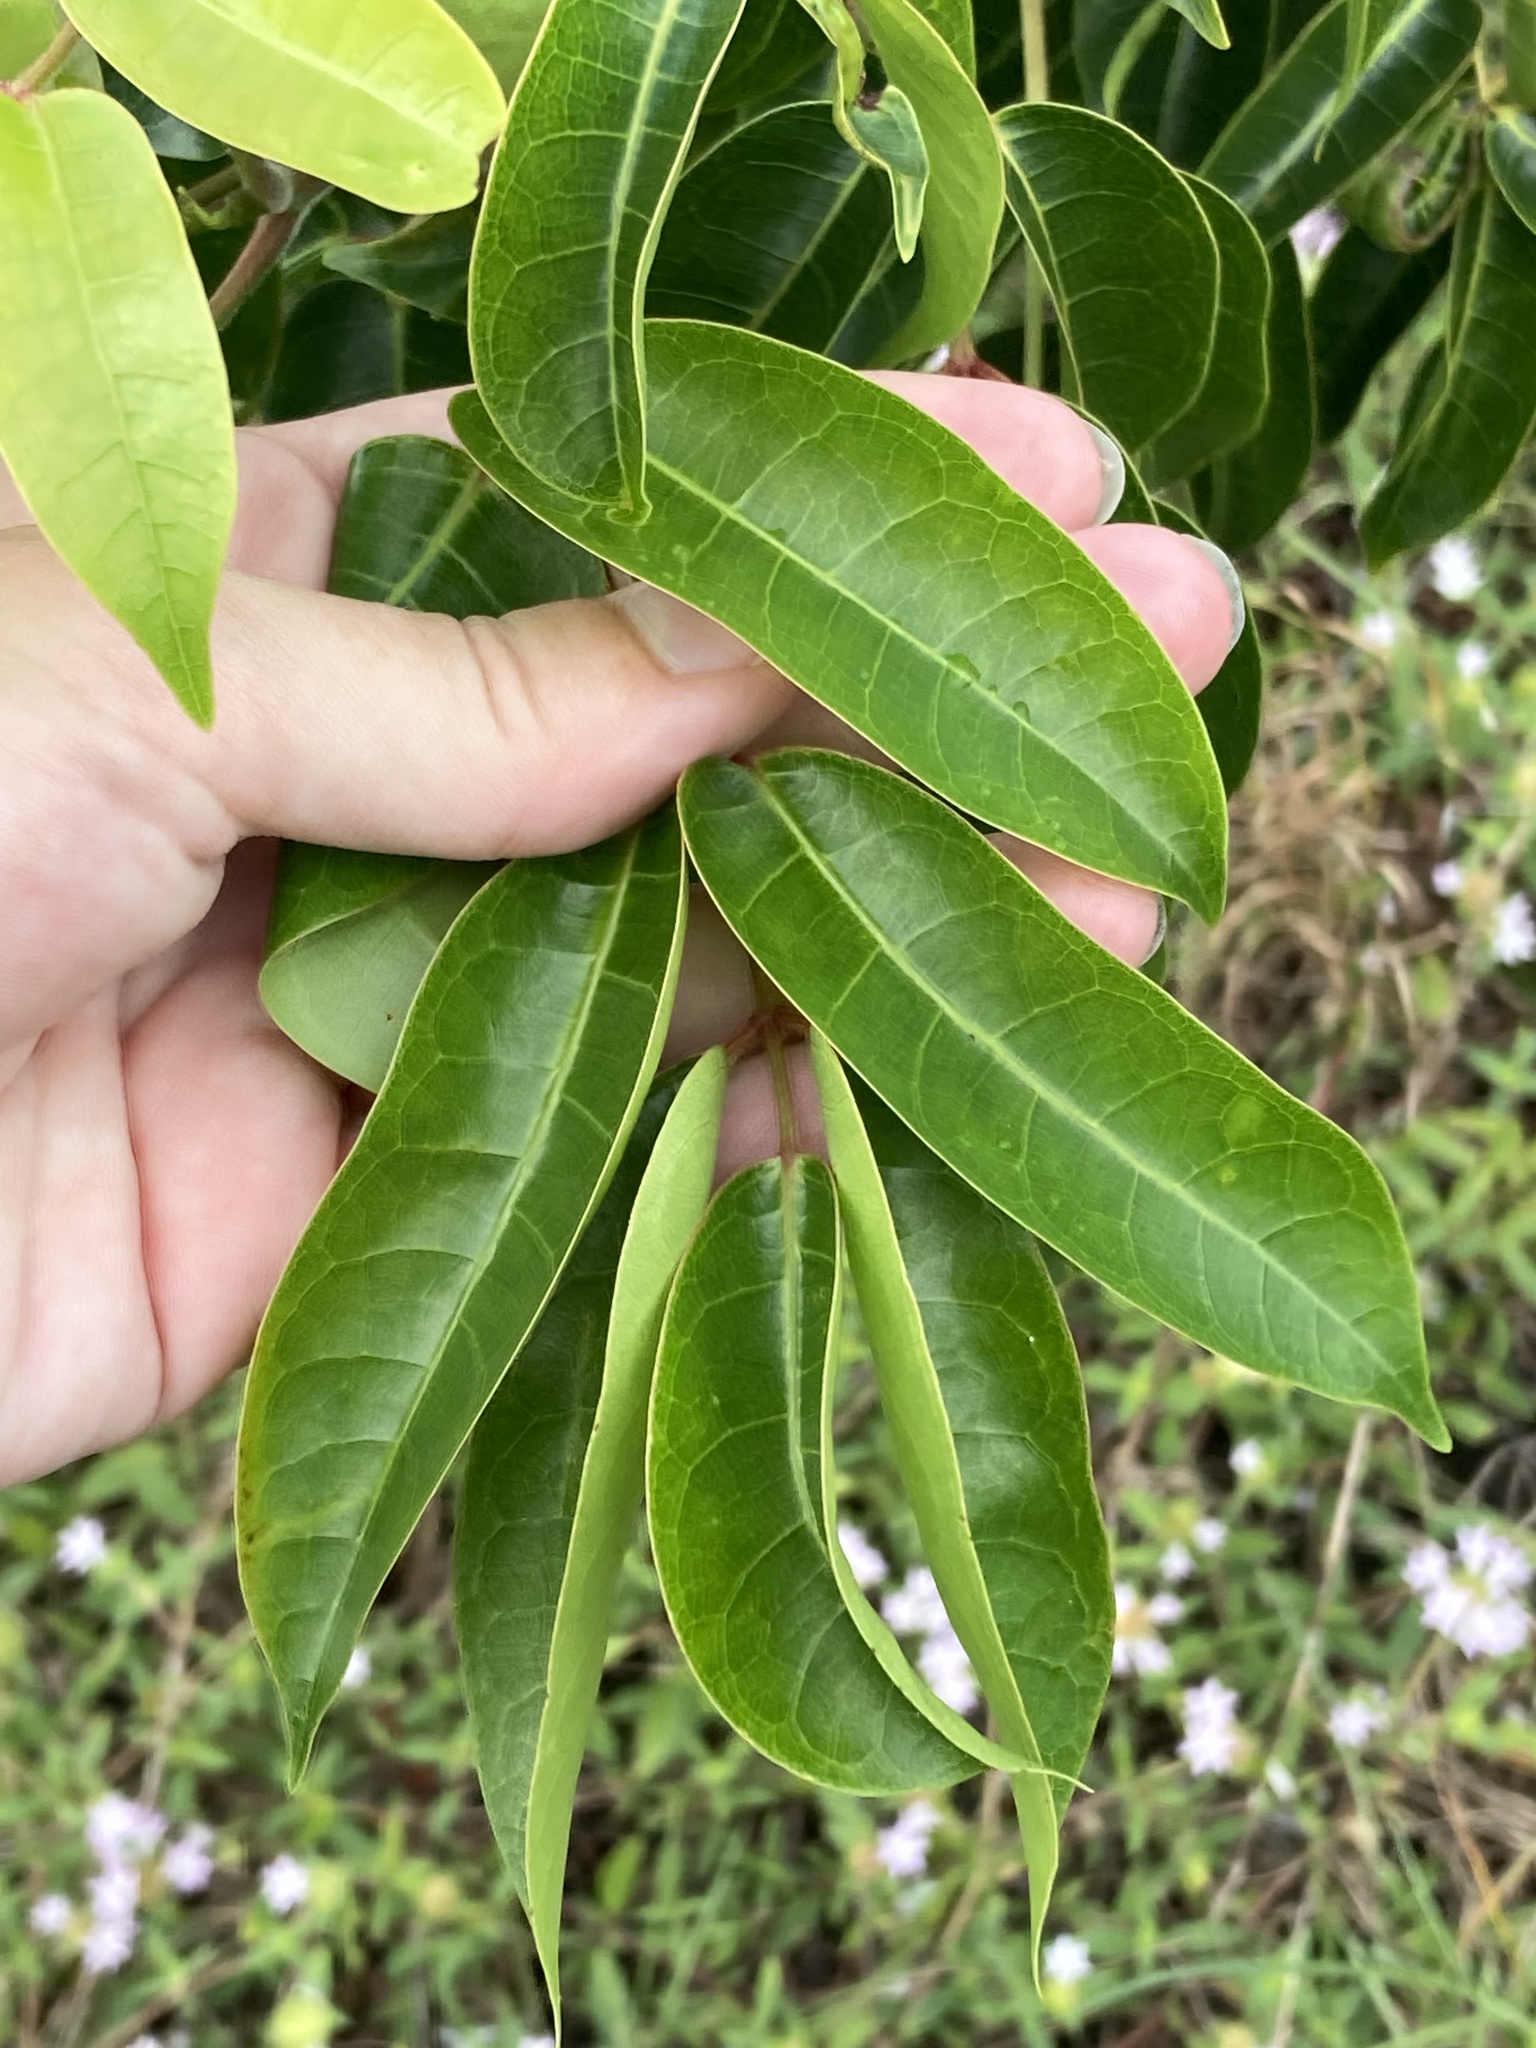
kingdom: Plantae
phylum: Tracheophyta
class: Magnoliopsida
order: Sapindales
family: Burseraceae
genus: Bursera
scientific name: Bursera simaruba
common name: Turpentine tree
